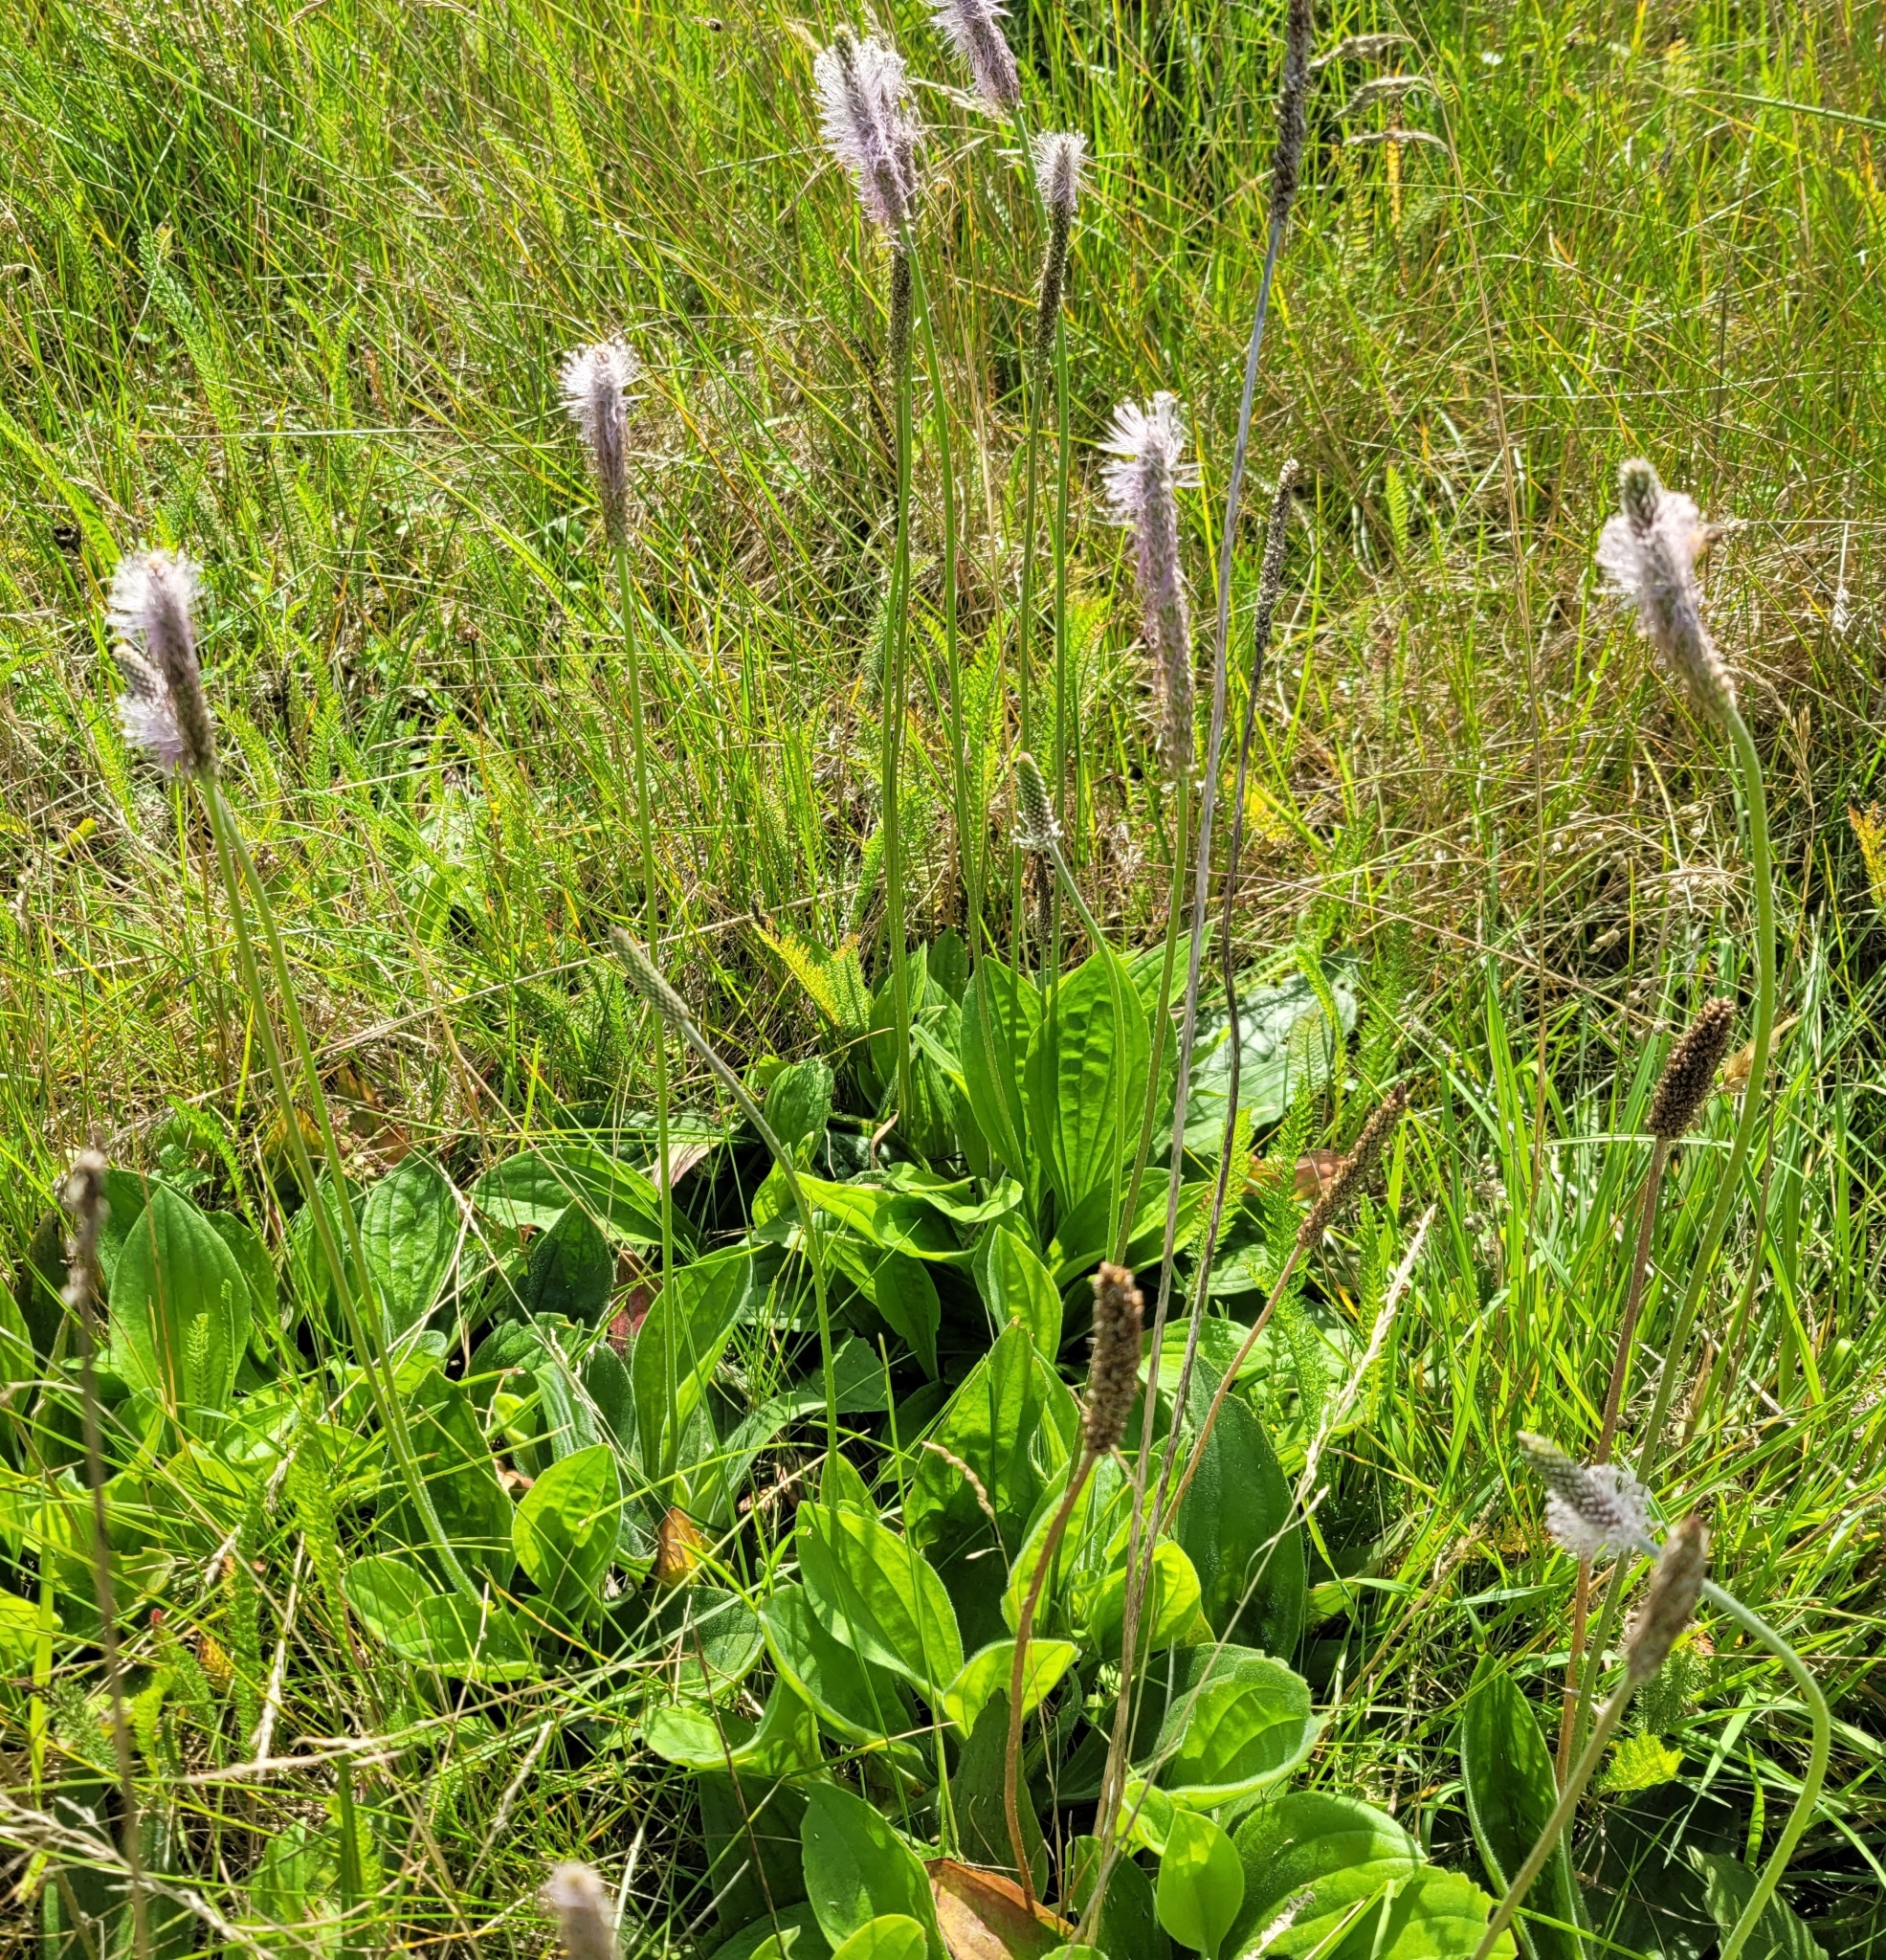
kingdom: Plantae
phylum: Tracheophyta
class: Magnoliopsida
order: Lamiales
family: Plantaginaceae
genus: Plantago
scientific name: Plantago media
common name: Hoary plantain
